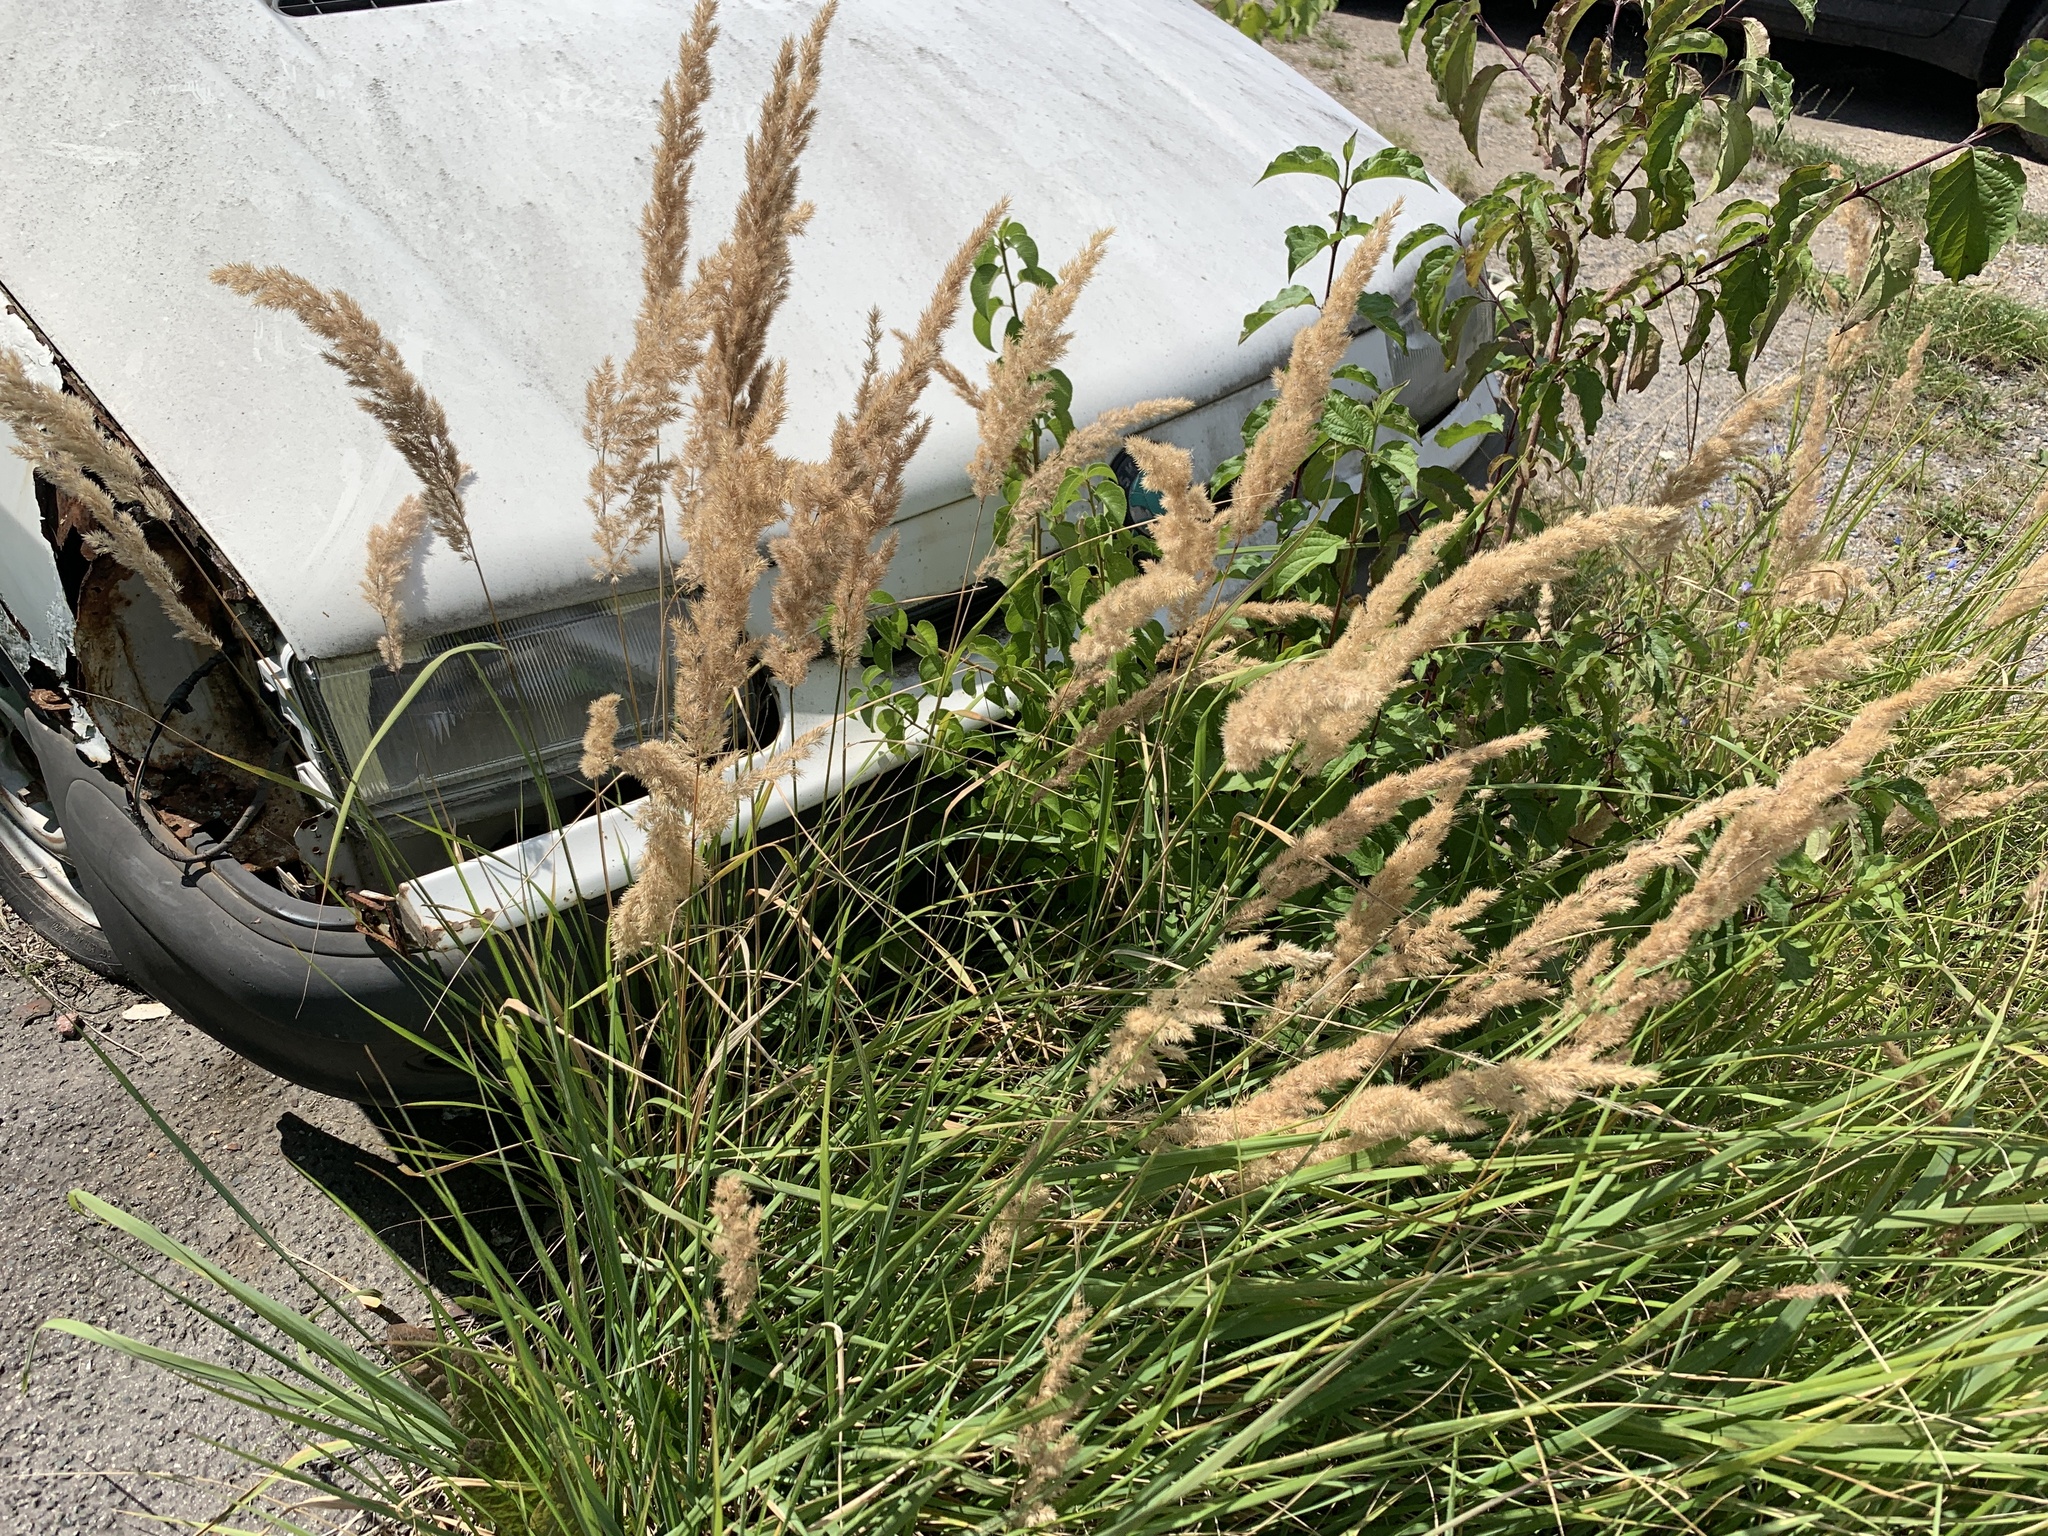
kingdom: Plantae
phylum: Tracheophyta
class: Liliopsida
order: Poales
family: Poaceae
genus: Calamagrostis
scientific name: Calamagrostis epigejos
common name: Wood small-reed
